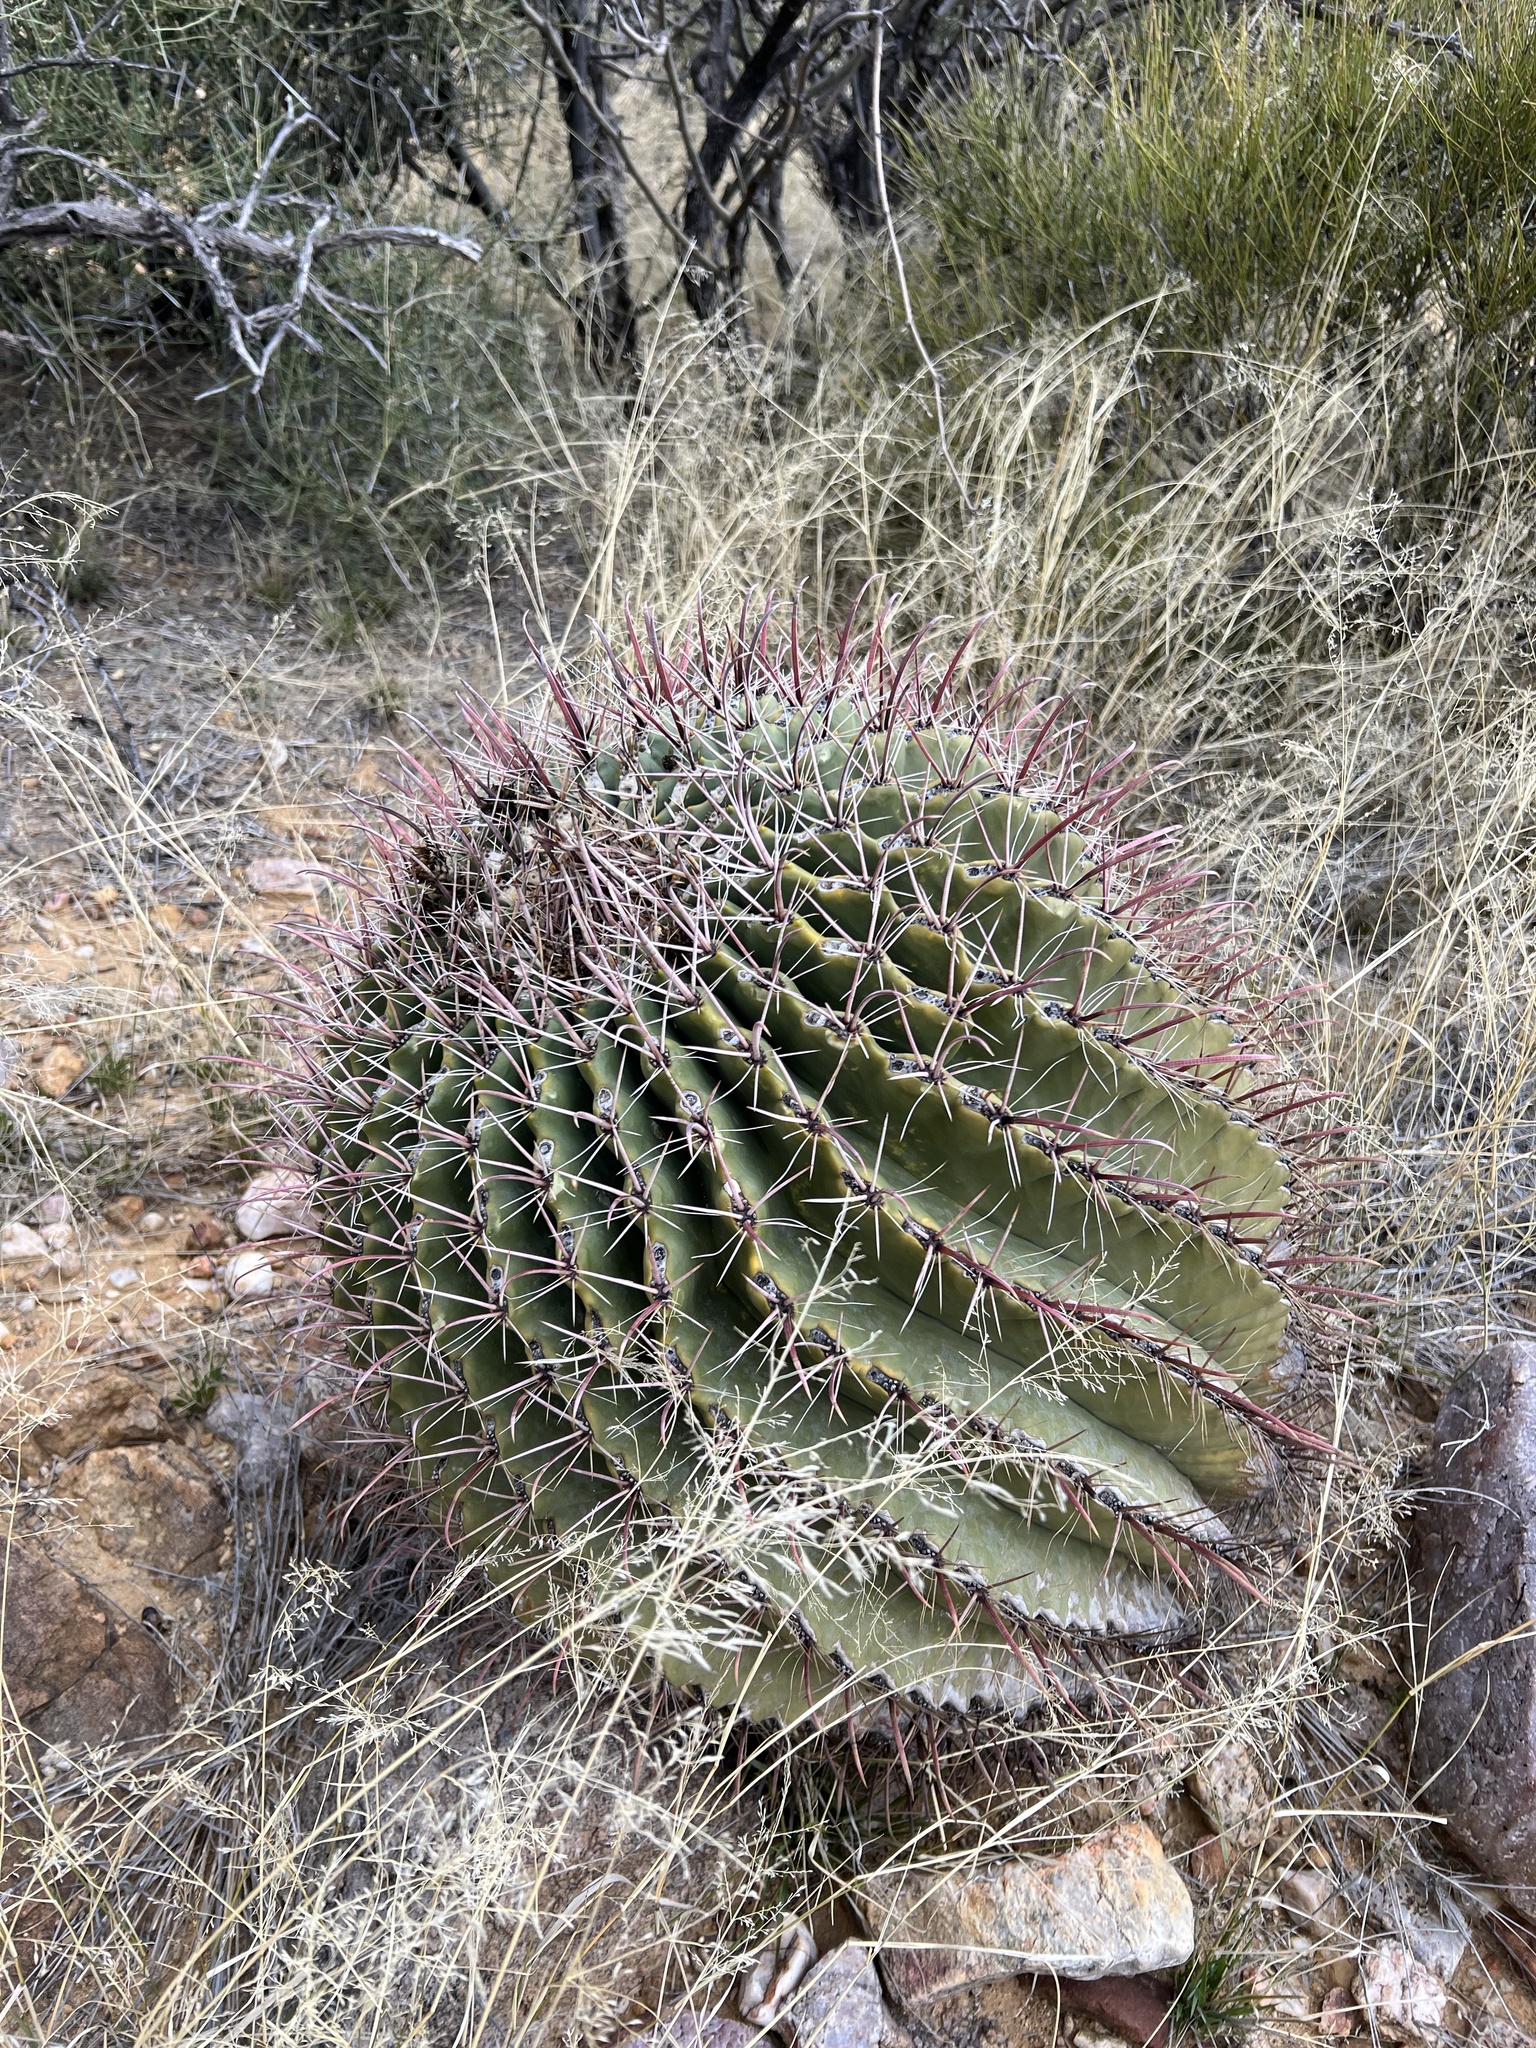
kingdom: Plantae
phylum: Tracheophyta
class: Magnoliopsida
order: Caryophyllales
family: Cactaceae
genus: Ferocactus
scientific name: Ferocactus wislizeni
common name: Candy barrel cactus
